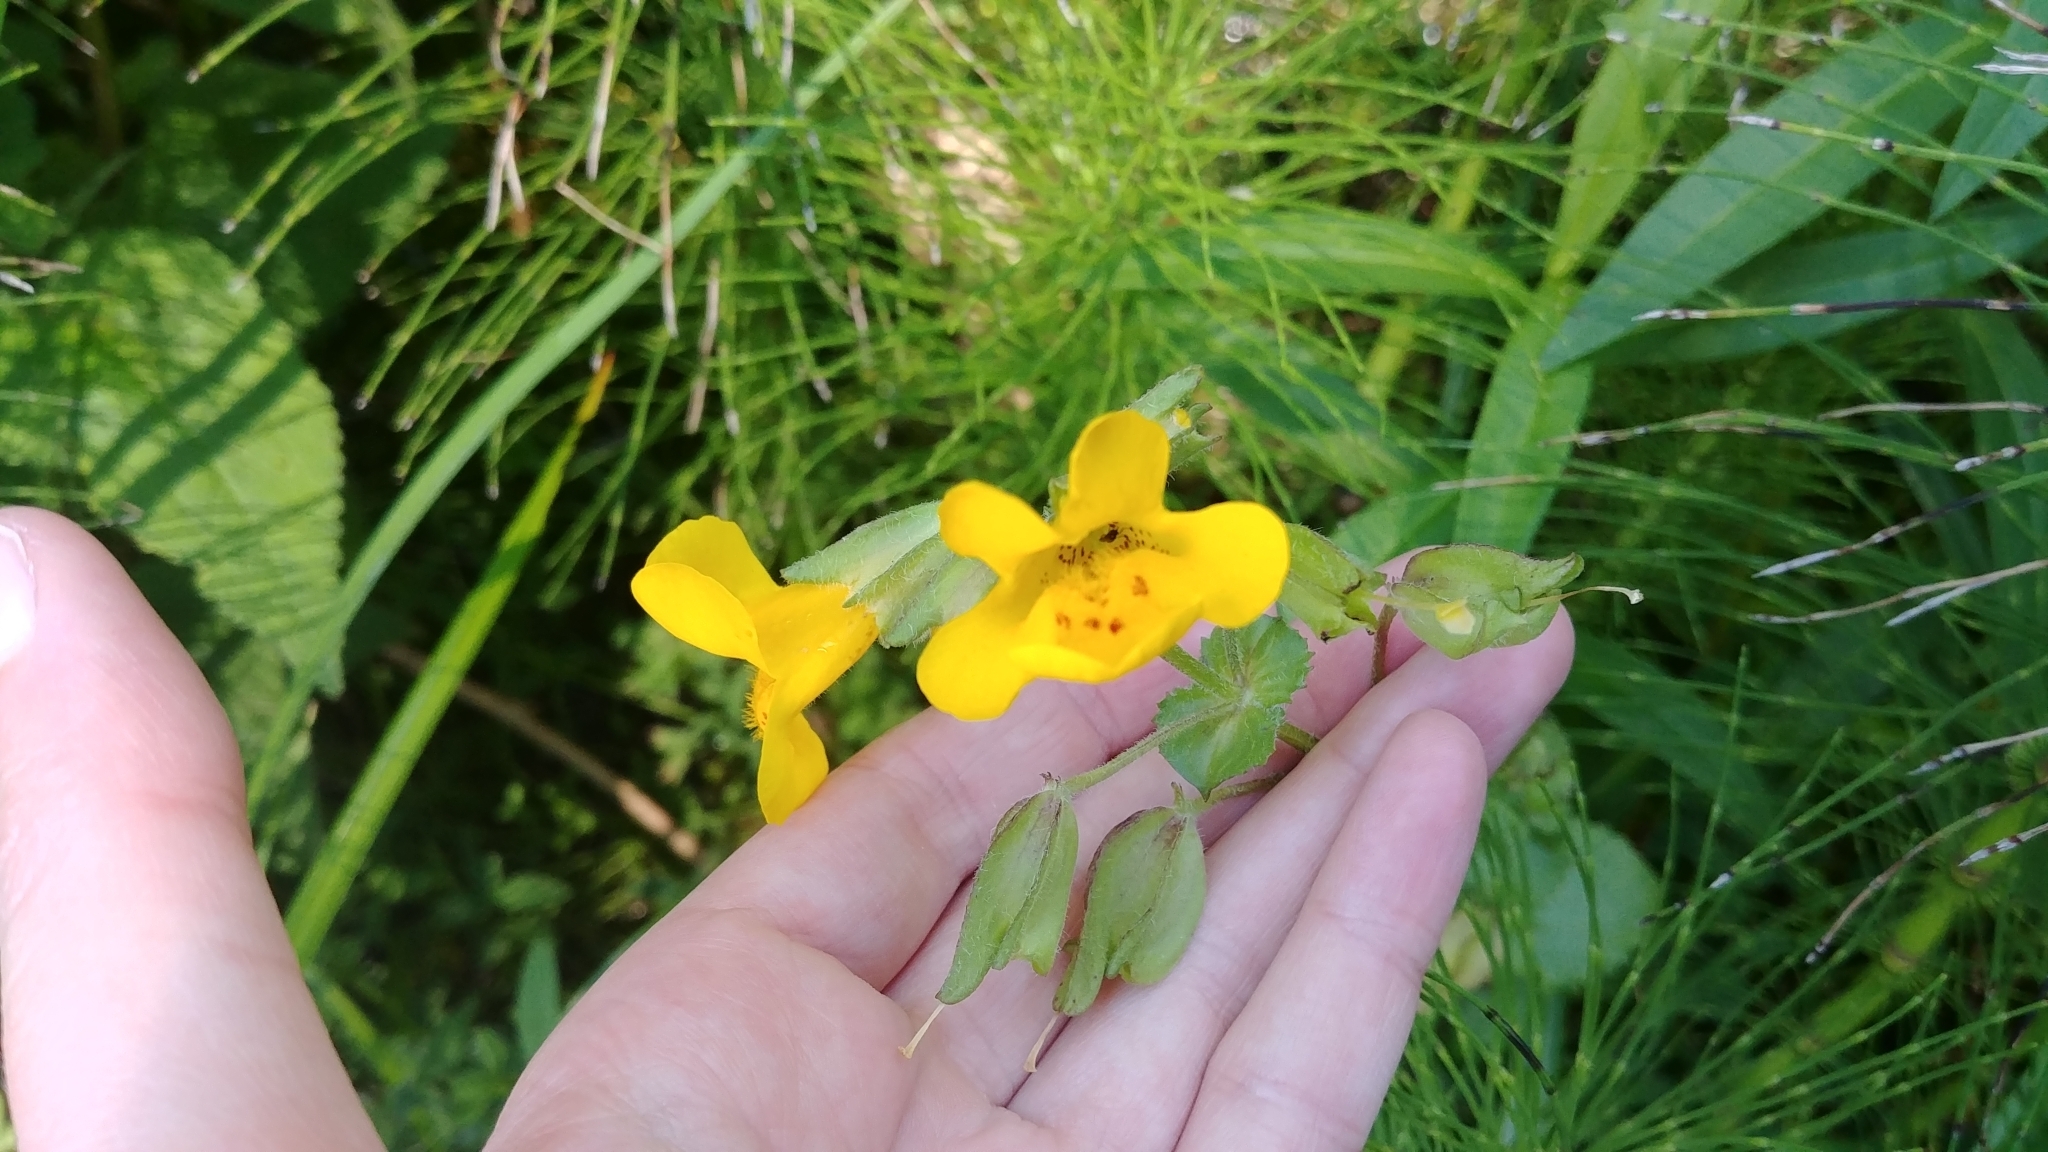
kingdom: Plantae
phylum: Tracheophyta
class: Magnoliopsida
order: Lamiales
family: Phrymaceae
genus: Erythranthe
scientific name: Erythranthe guttata
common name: Monkeyflower
